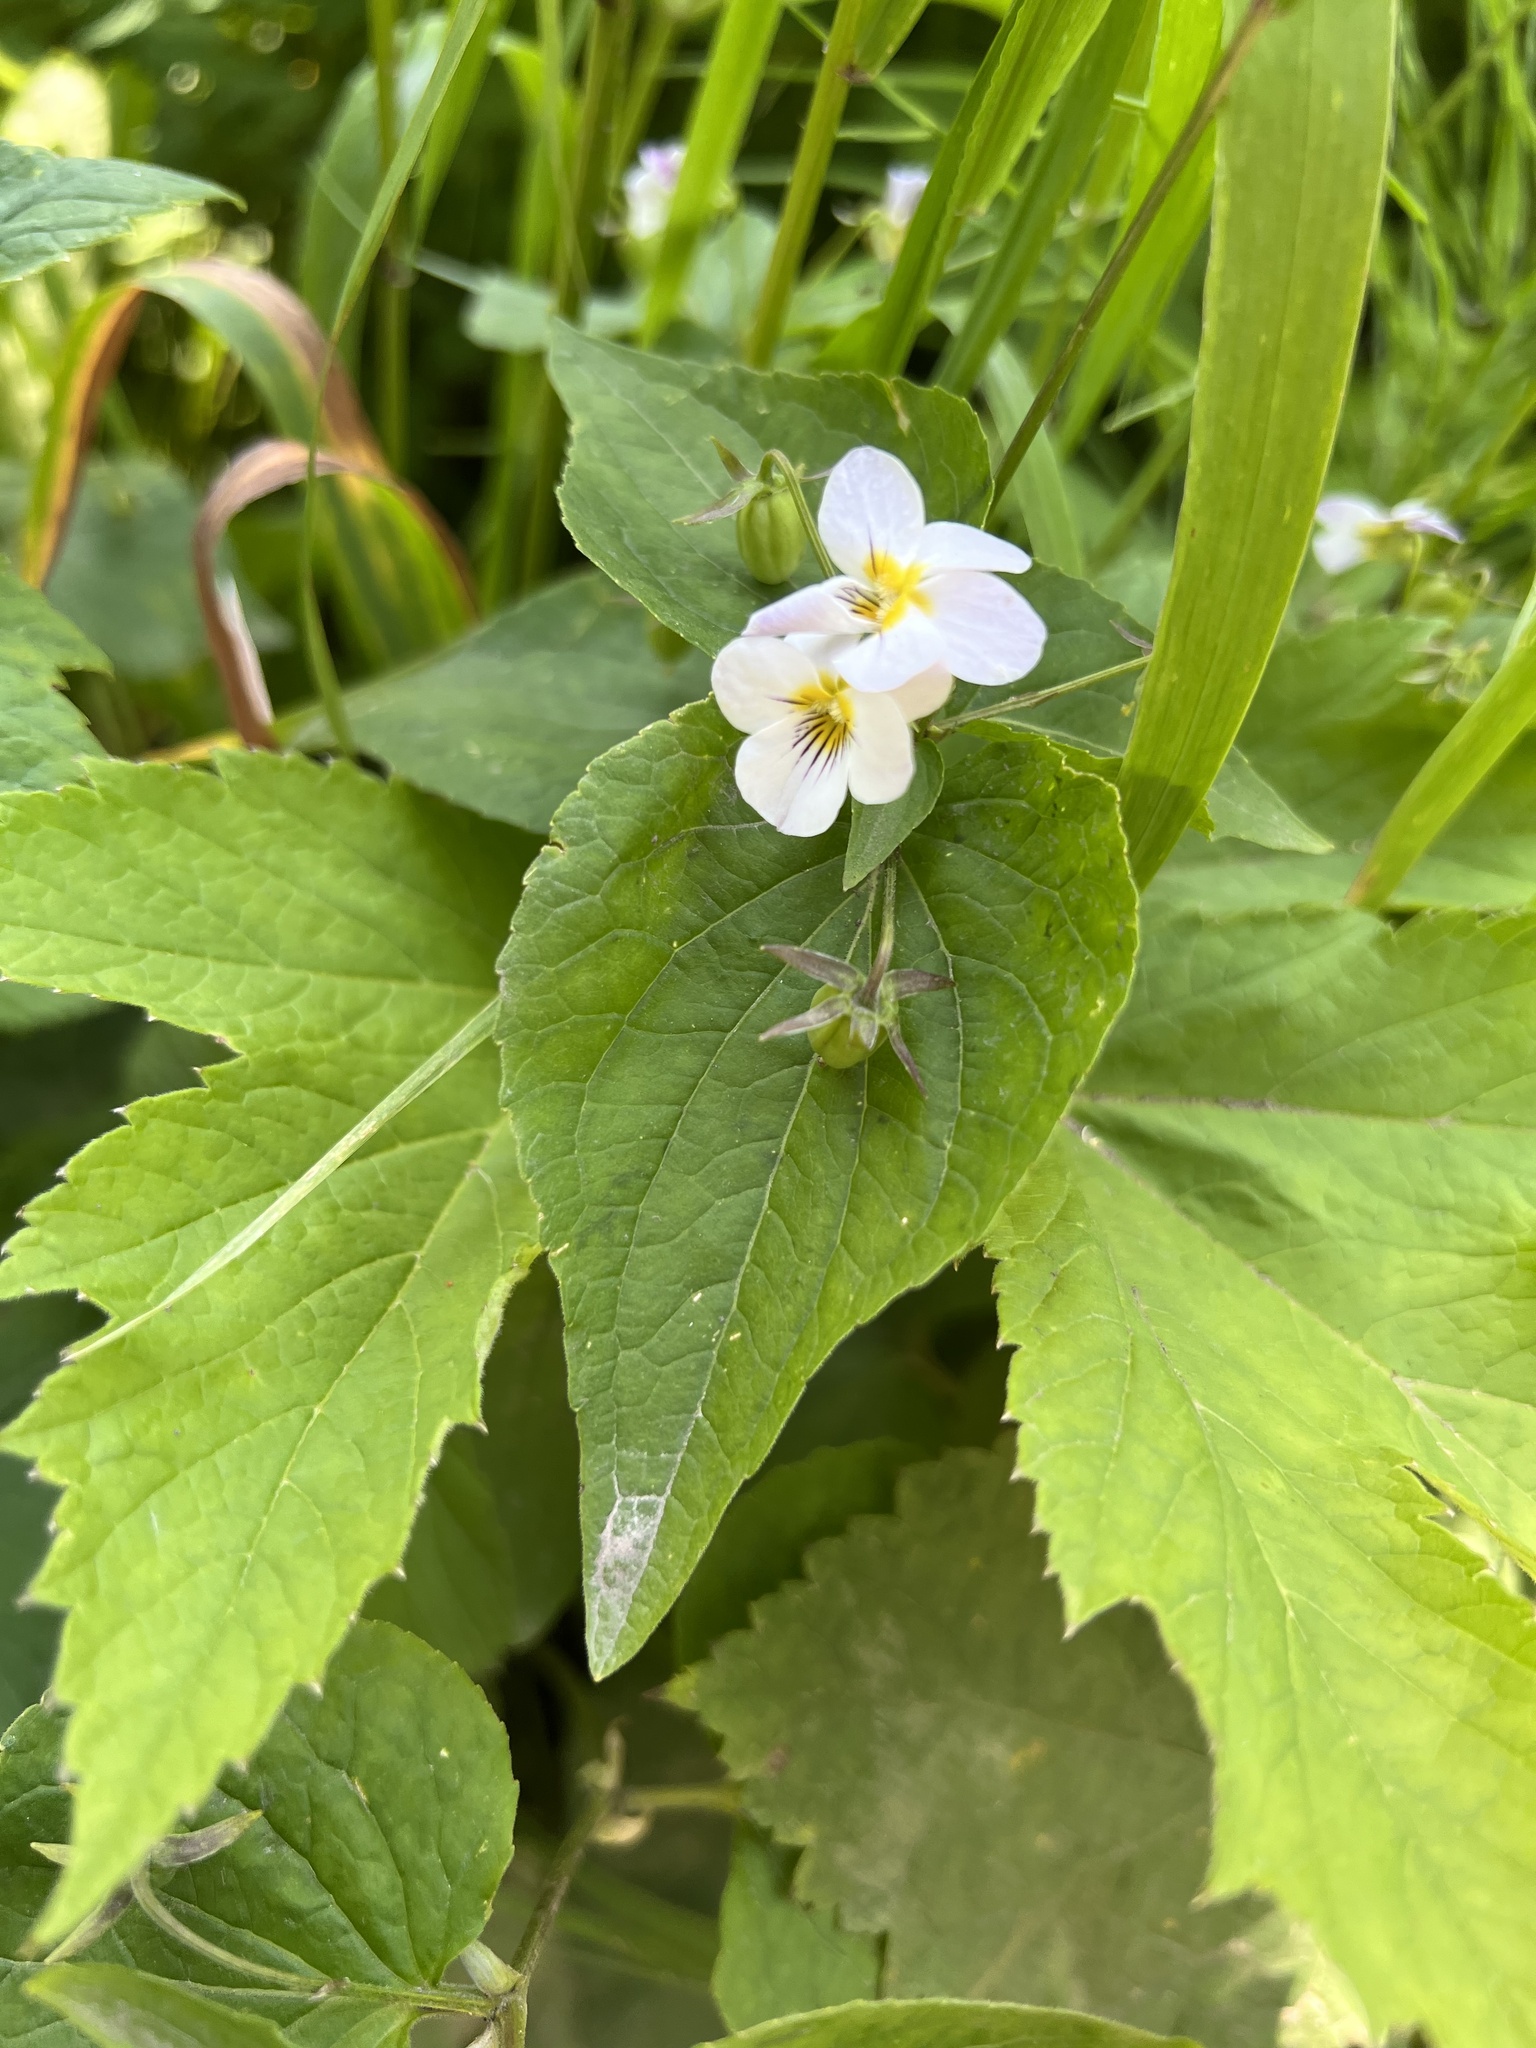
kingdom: Plantae
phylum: Tracheophyta
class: Magnoliopsida
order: Malpighiales
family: Violaceae
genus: Viola
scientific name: Viola canadensis
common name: Canada violet
